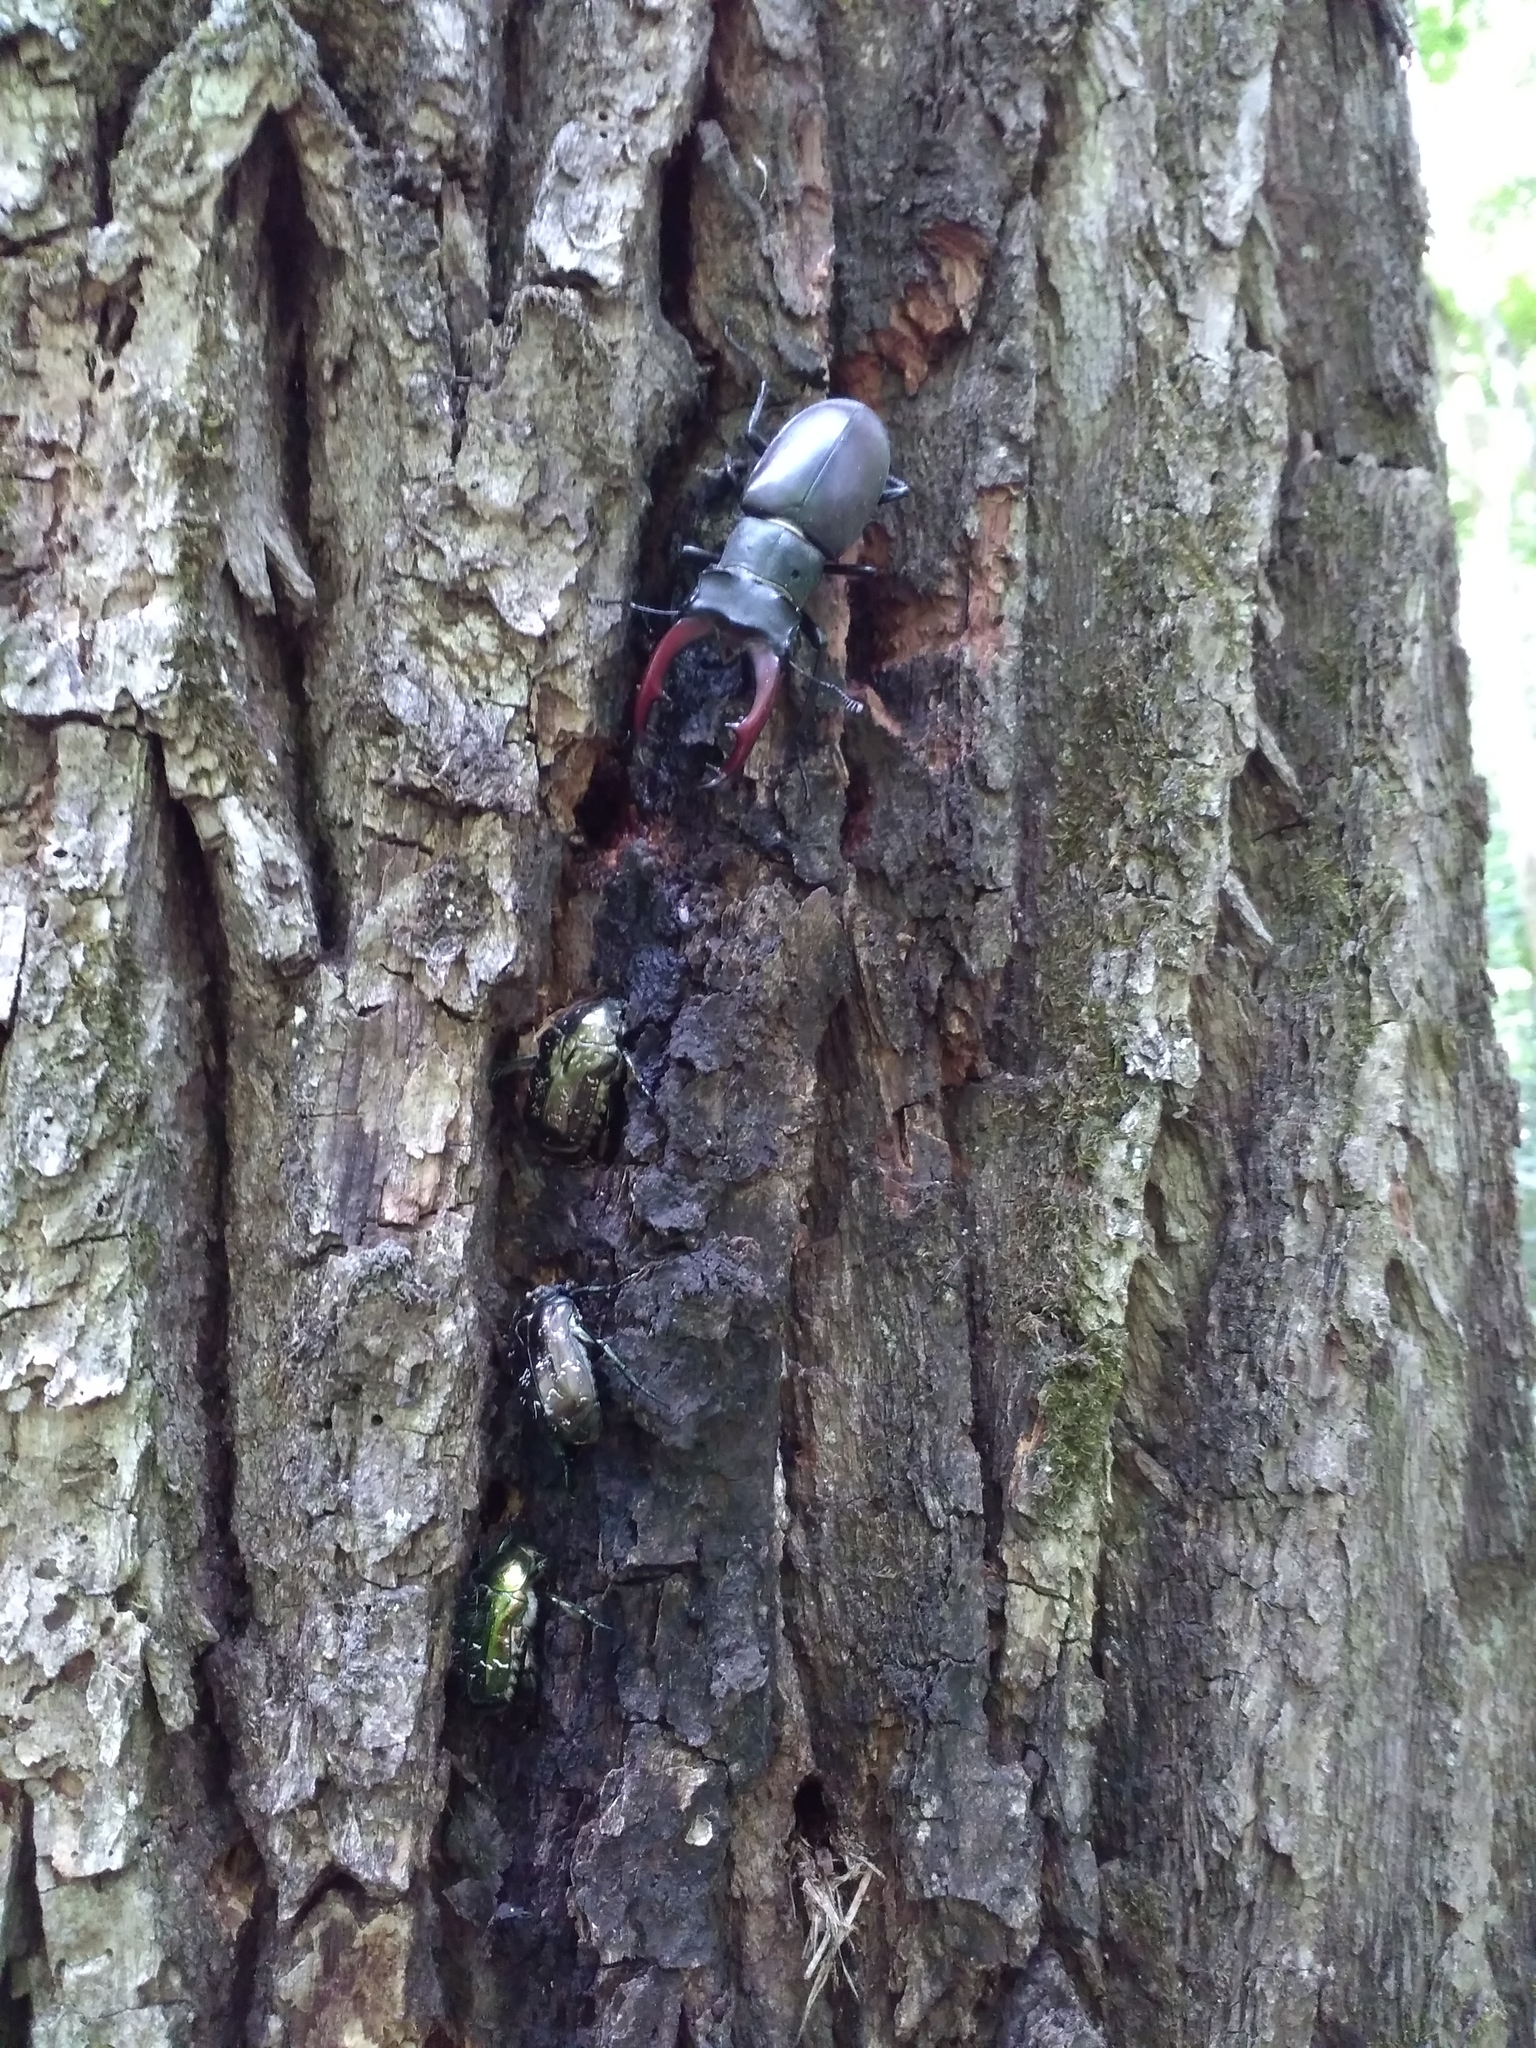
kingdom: Animalia
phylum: Arthropoda
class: Insecta
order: Coleoptera
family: Scarabaeidae
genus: Cetonia
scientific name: Cetonia aurata
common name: Rose chafer
